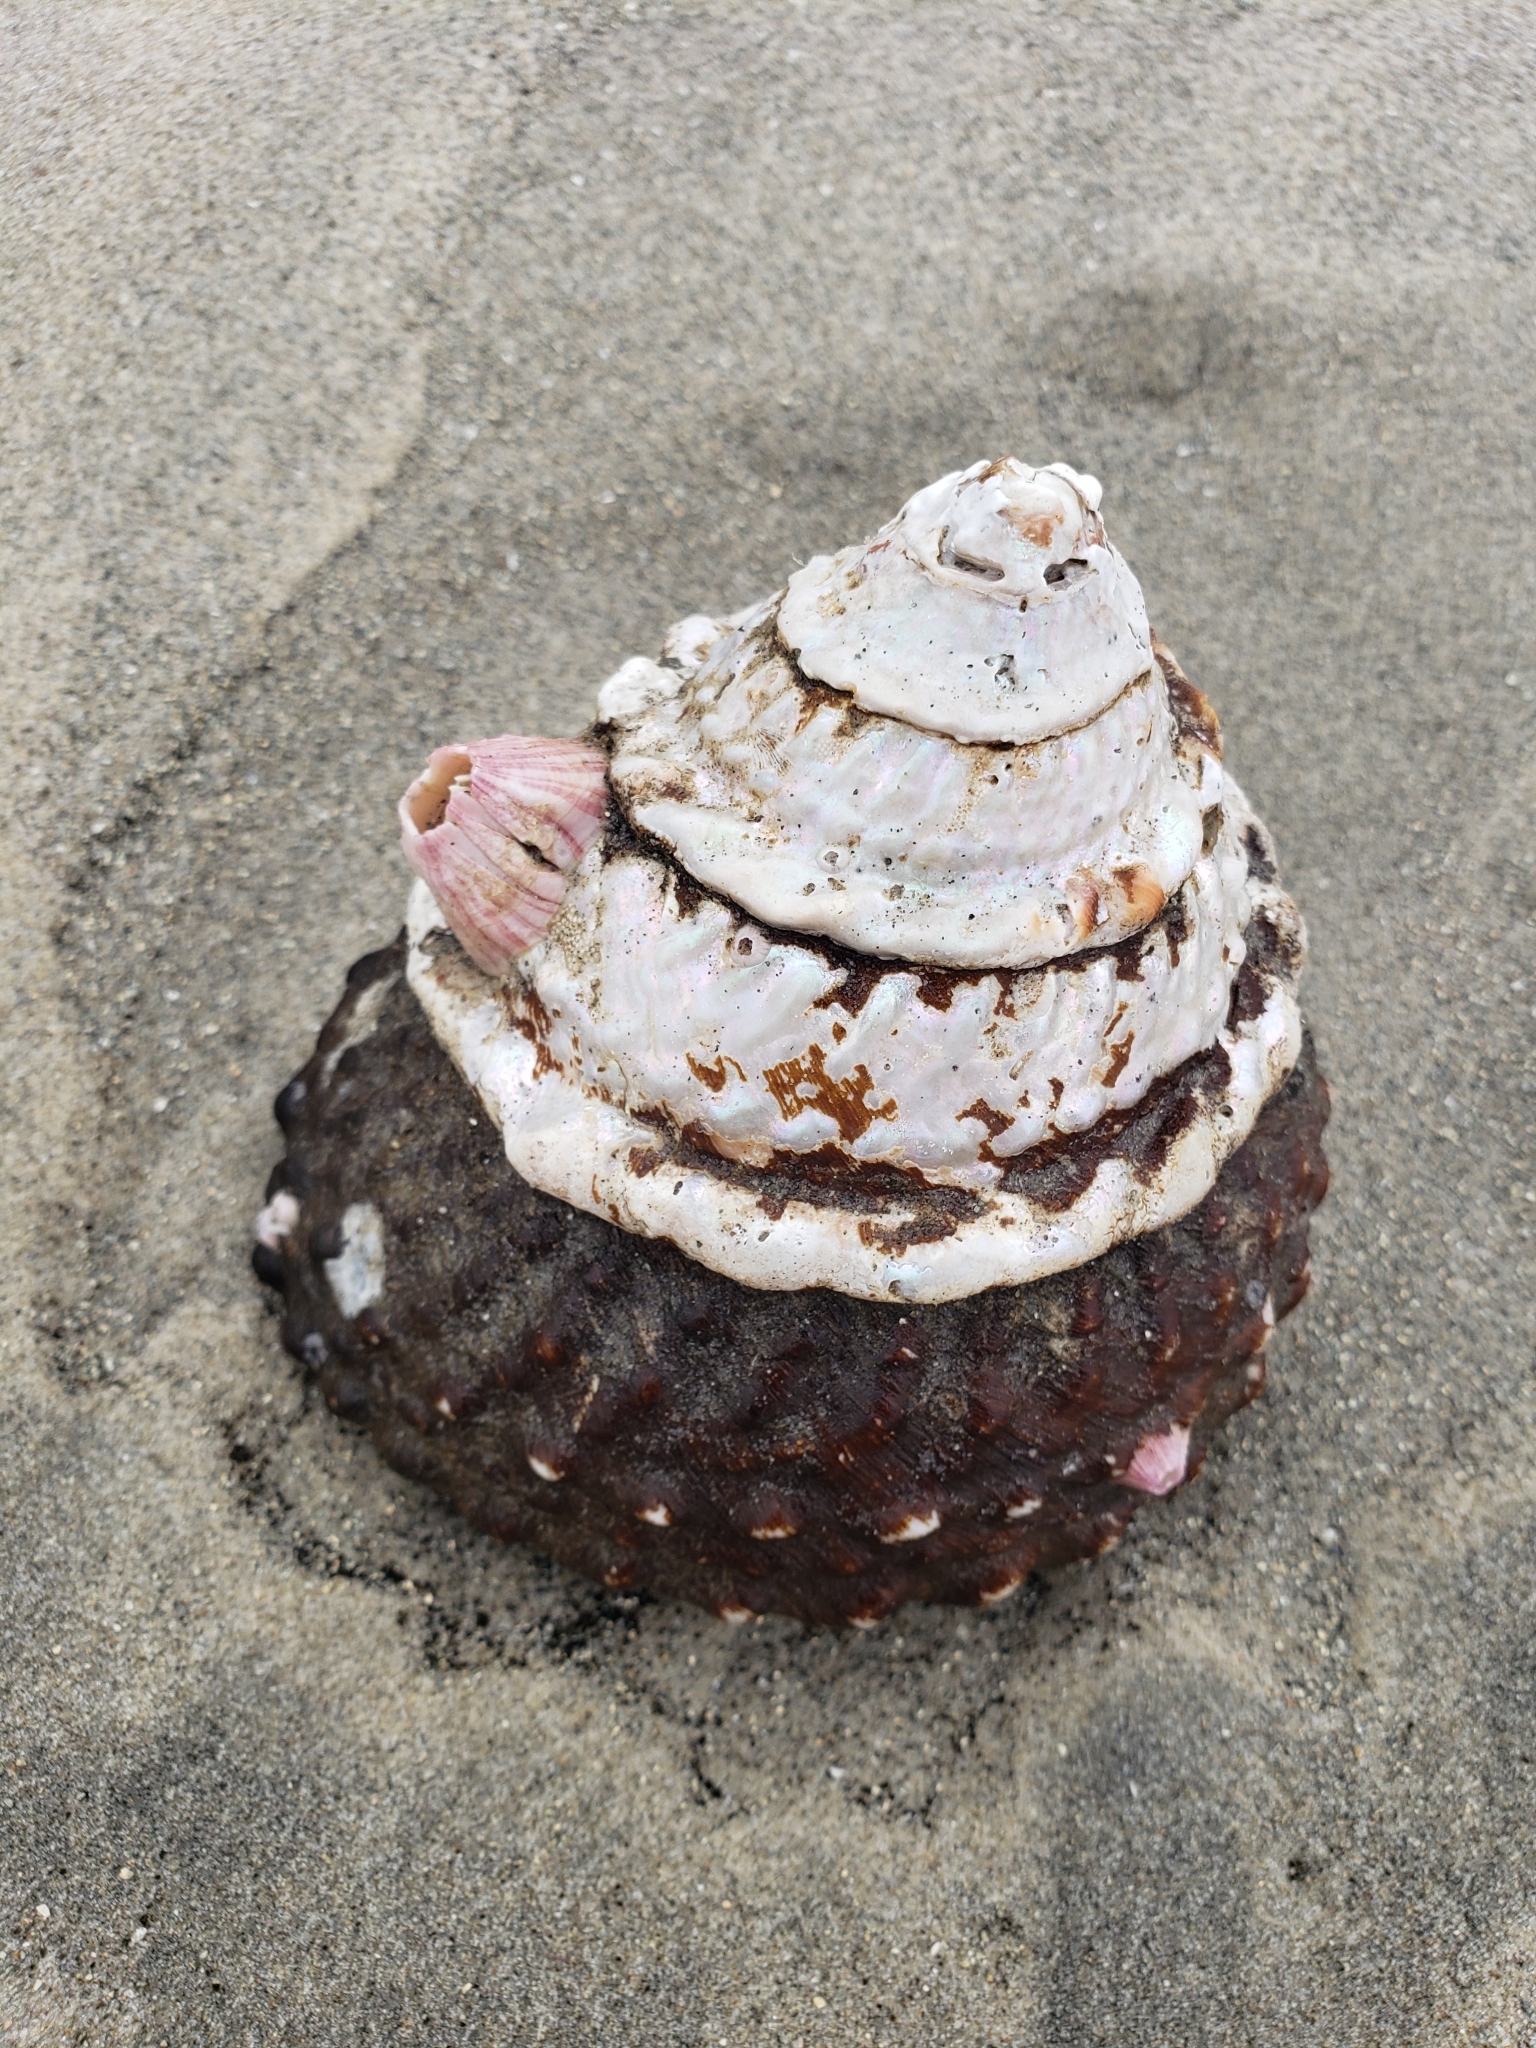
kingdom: Animalia
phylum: Mollusca
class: Gastropoda
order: Trochida
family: Turbinidae
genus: Megastraea
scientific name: Megastraea undosa
